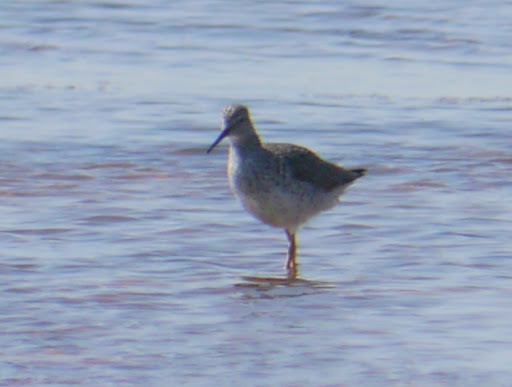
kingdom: Animalia
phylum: Chordata
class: Aves
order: Charadriiformes
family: Scolopacidae
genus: Tringa
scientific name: Tringa melanoleuca
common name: Greater yellowlegs
